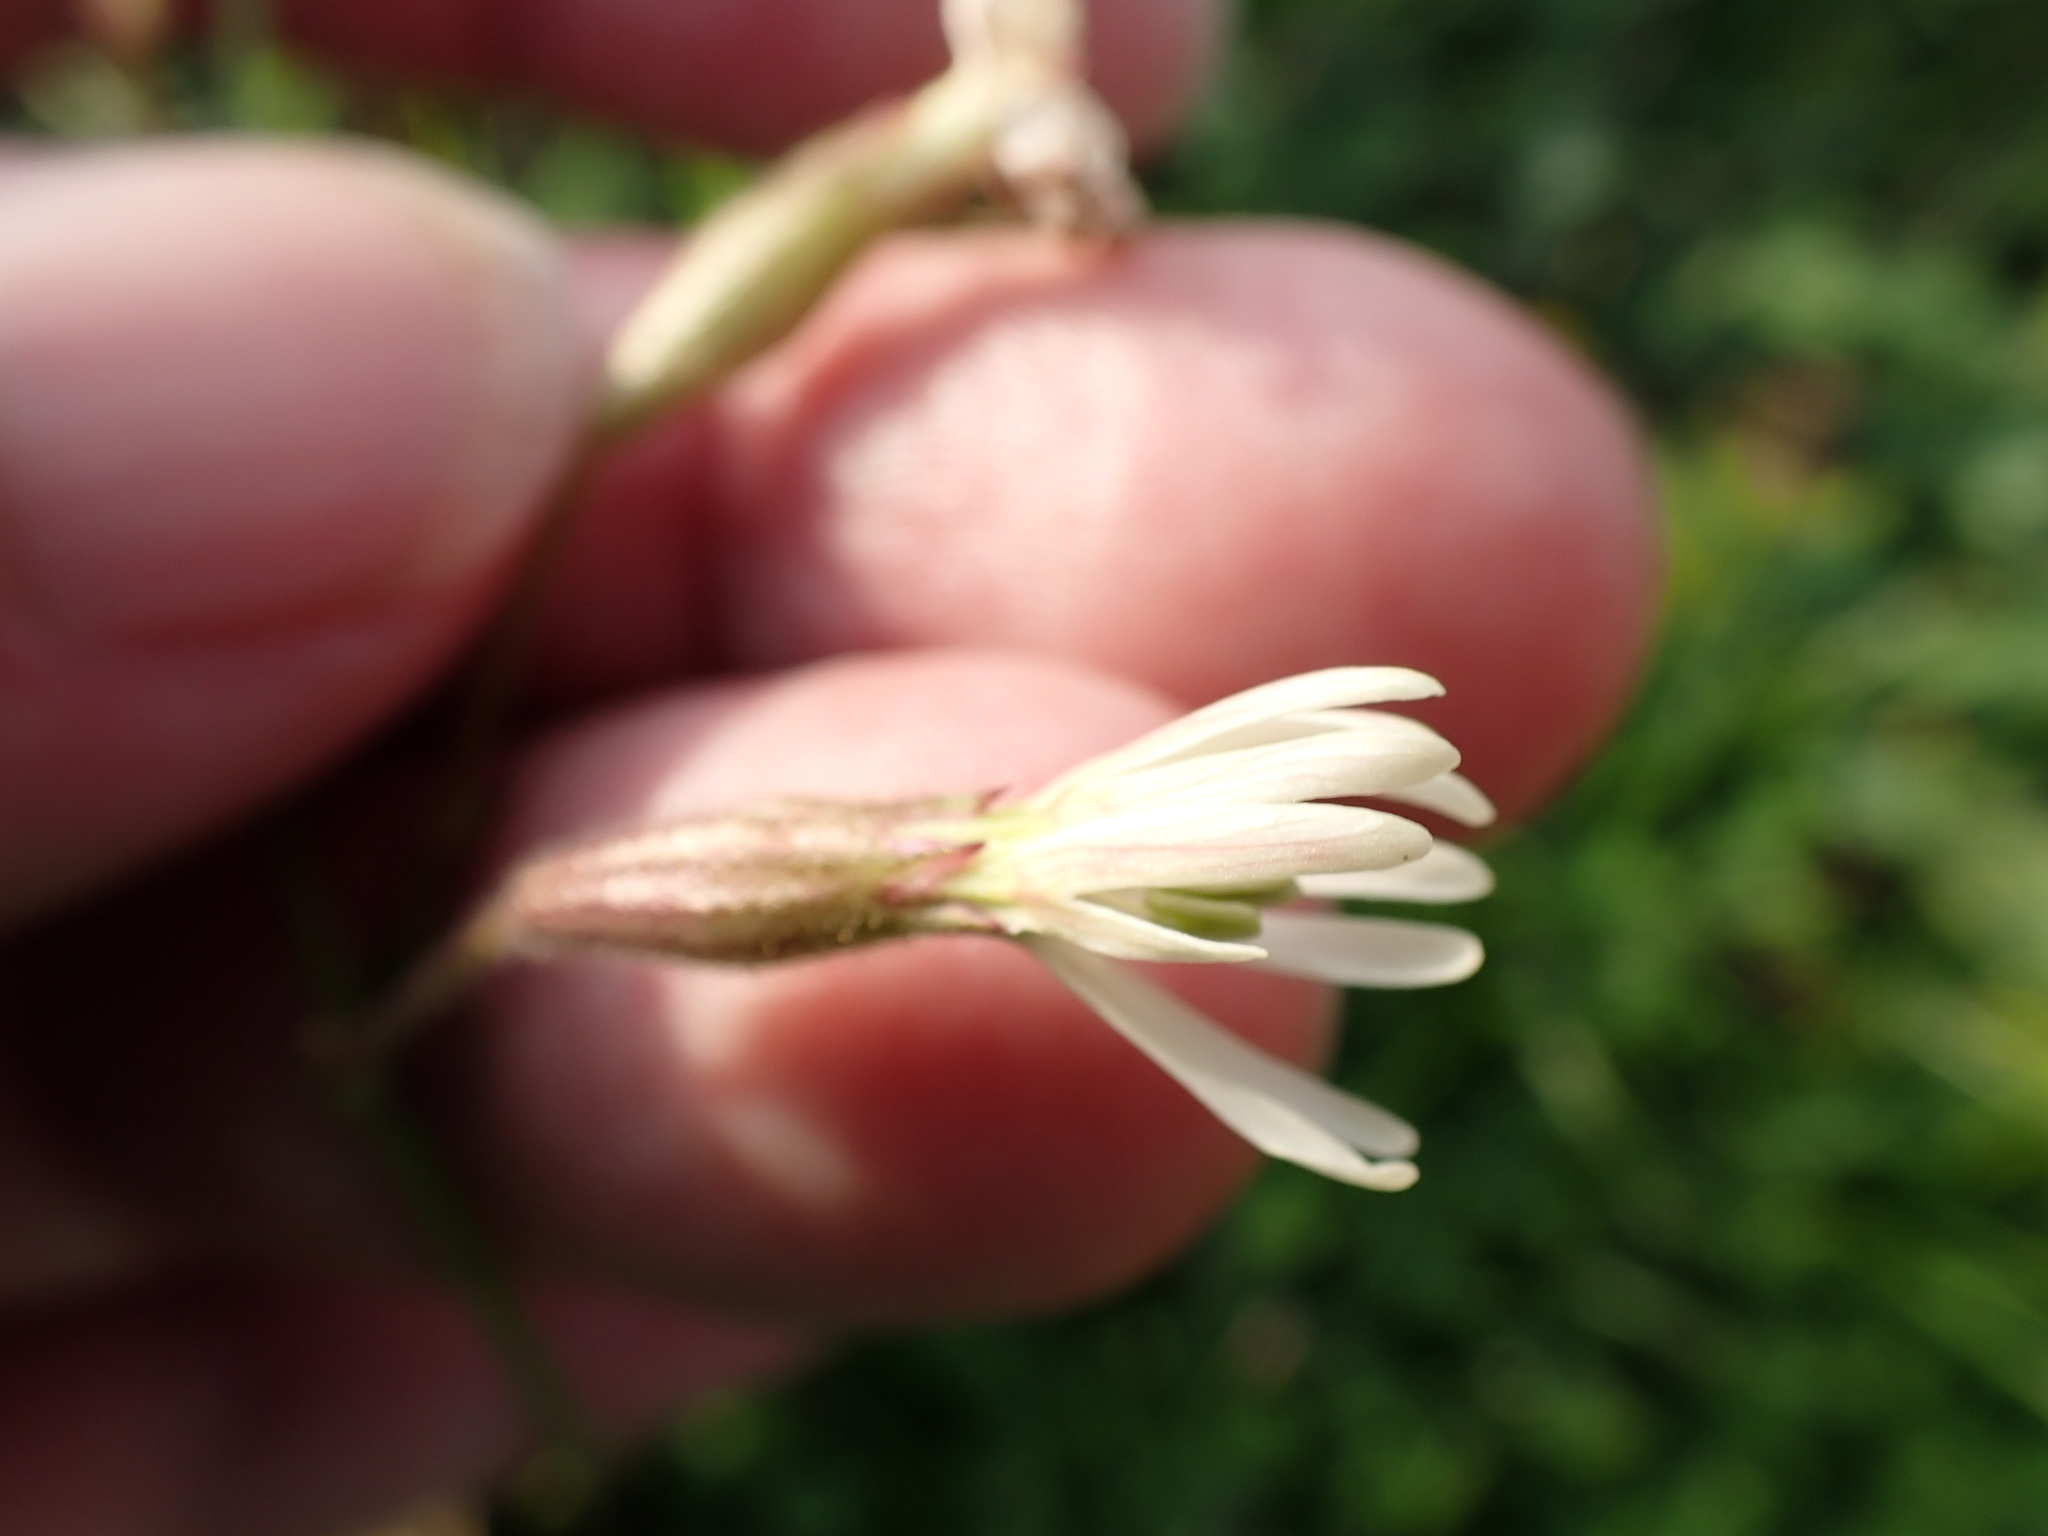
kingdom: Plantae
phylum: Tracheophyta
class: Magnoliopsida
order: Caryophyllales
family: Caryophyllaceae
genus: Silene
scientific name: Silene nutans
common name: Nottingham catchfly
